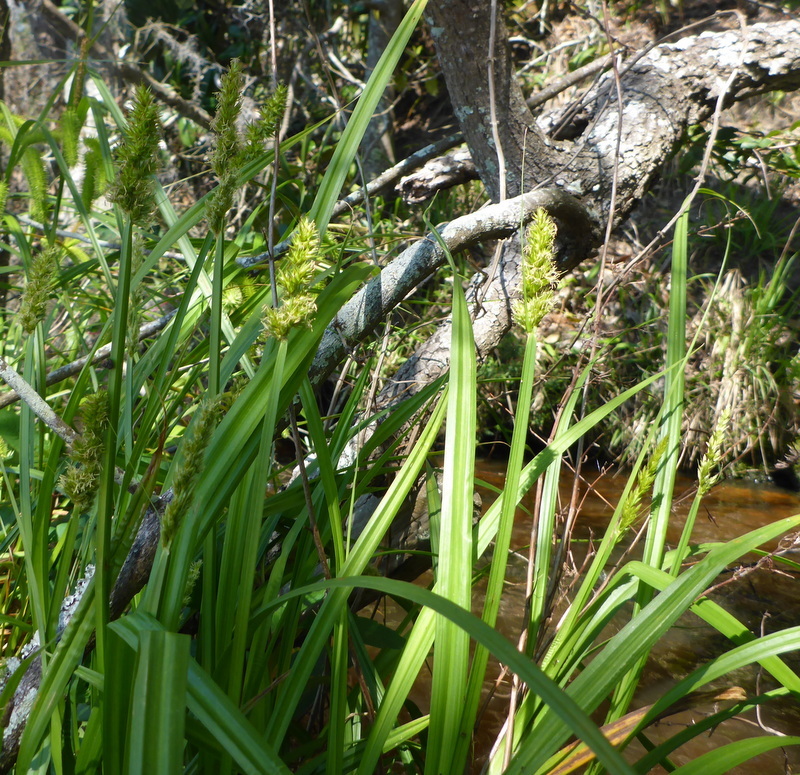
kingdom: Plantae
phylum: Tracheophyta
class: Liliopsida
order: Poales
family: Cyperaceae
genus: Carex
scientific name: Carex stipata
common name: Awl-fruited sedge
